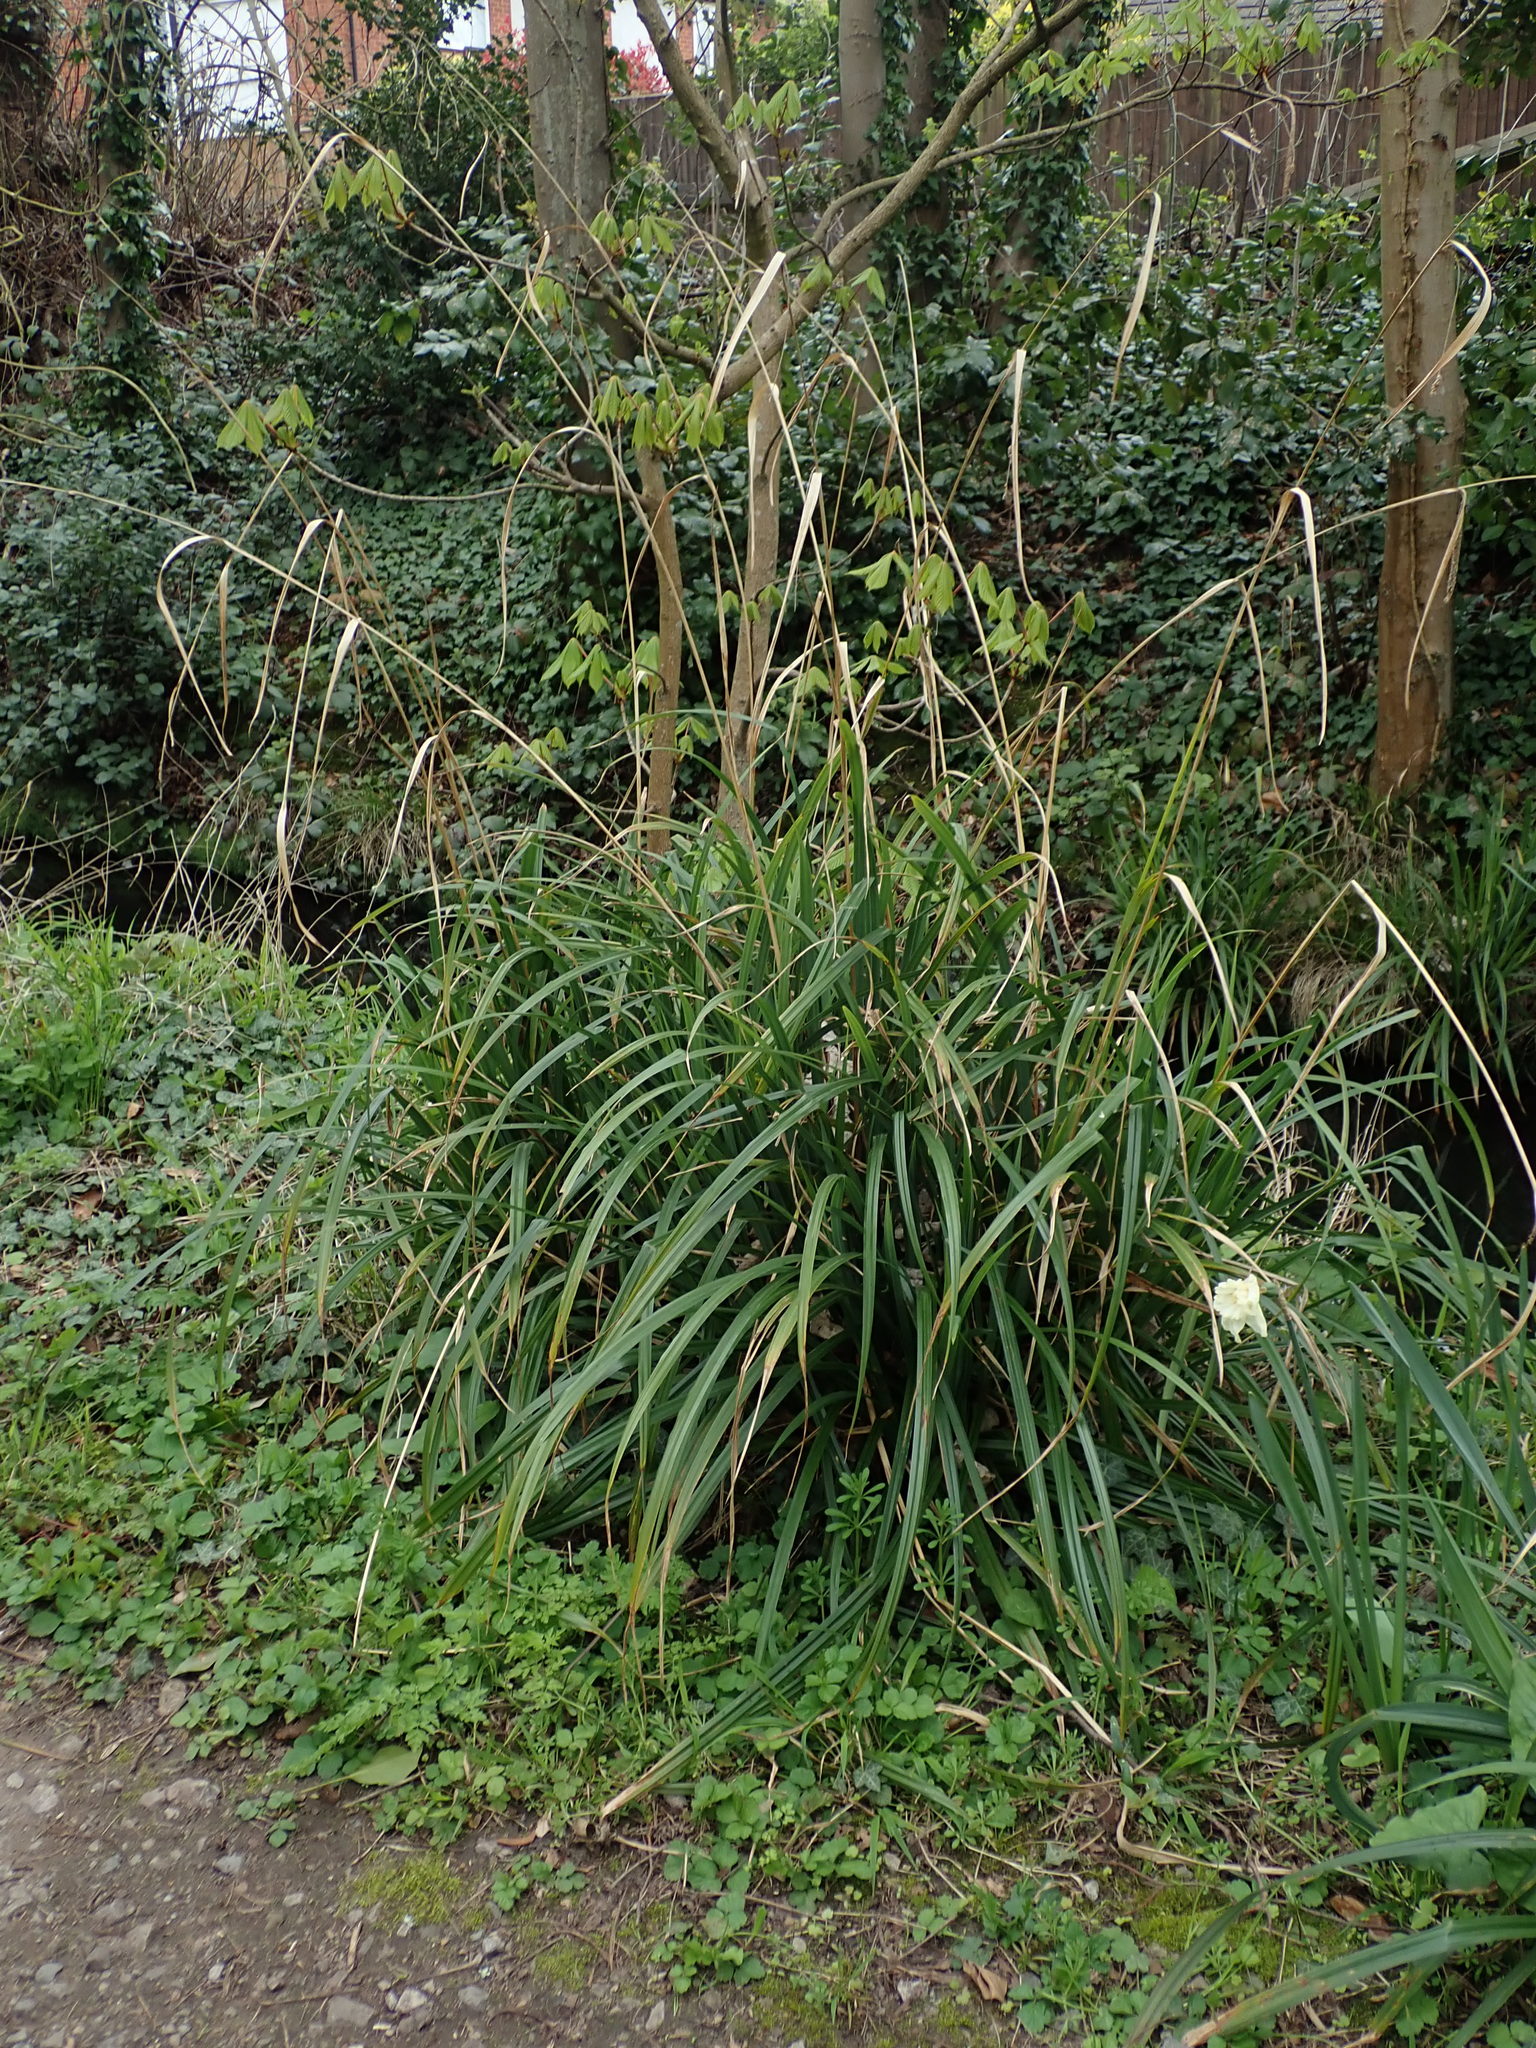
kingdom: Plantae
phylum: Tracheophyta
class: Liliopsida
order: Poales
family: Cyperaceae
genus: Carex
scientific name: Carex pendula
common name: Pendulous sedge
